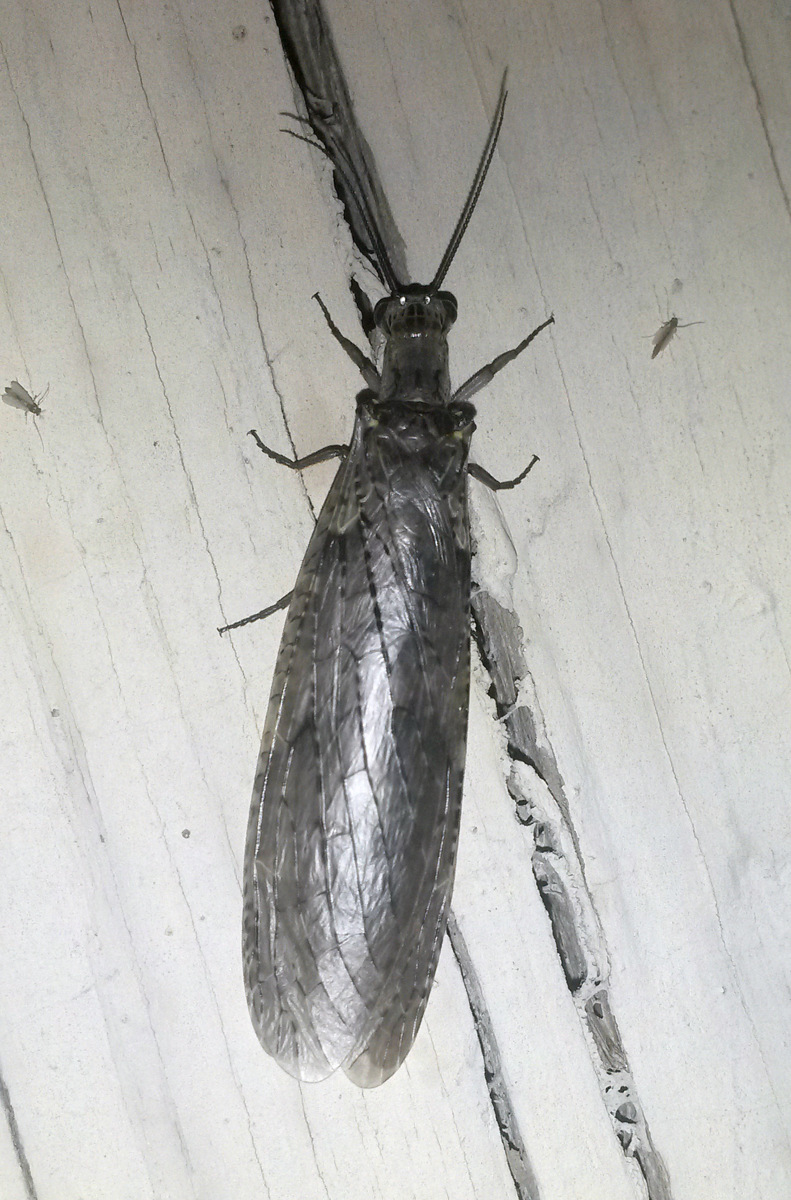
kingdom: Animalia
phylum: Arthropoda
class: Insecta
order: Megaloptera
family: Corydalidae
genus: Chauliodes
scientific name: Chauliodes rastricornis
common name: Spring fishfly
